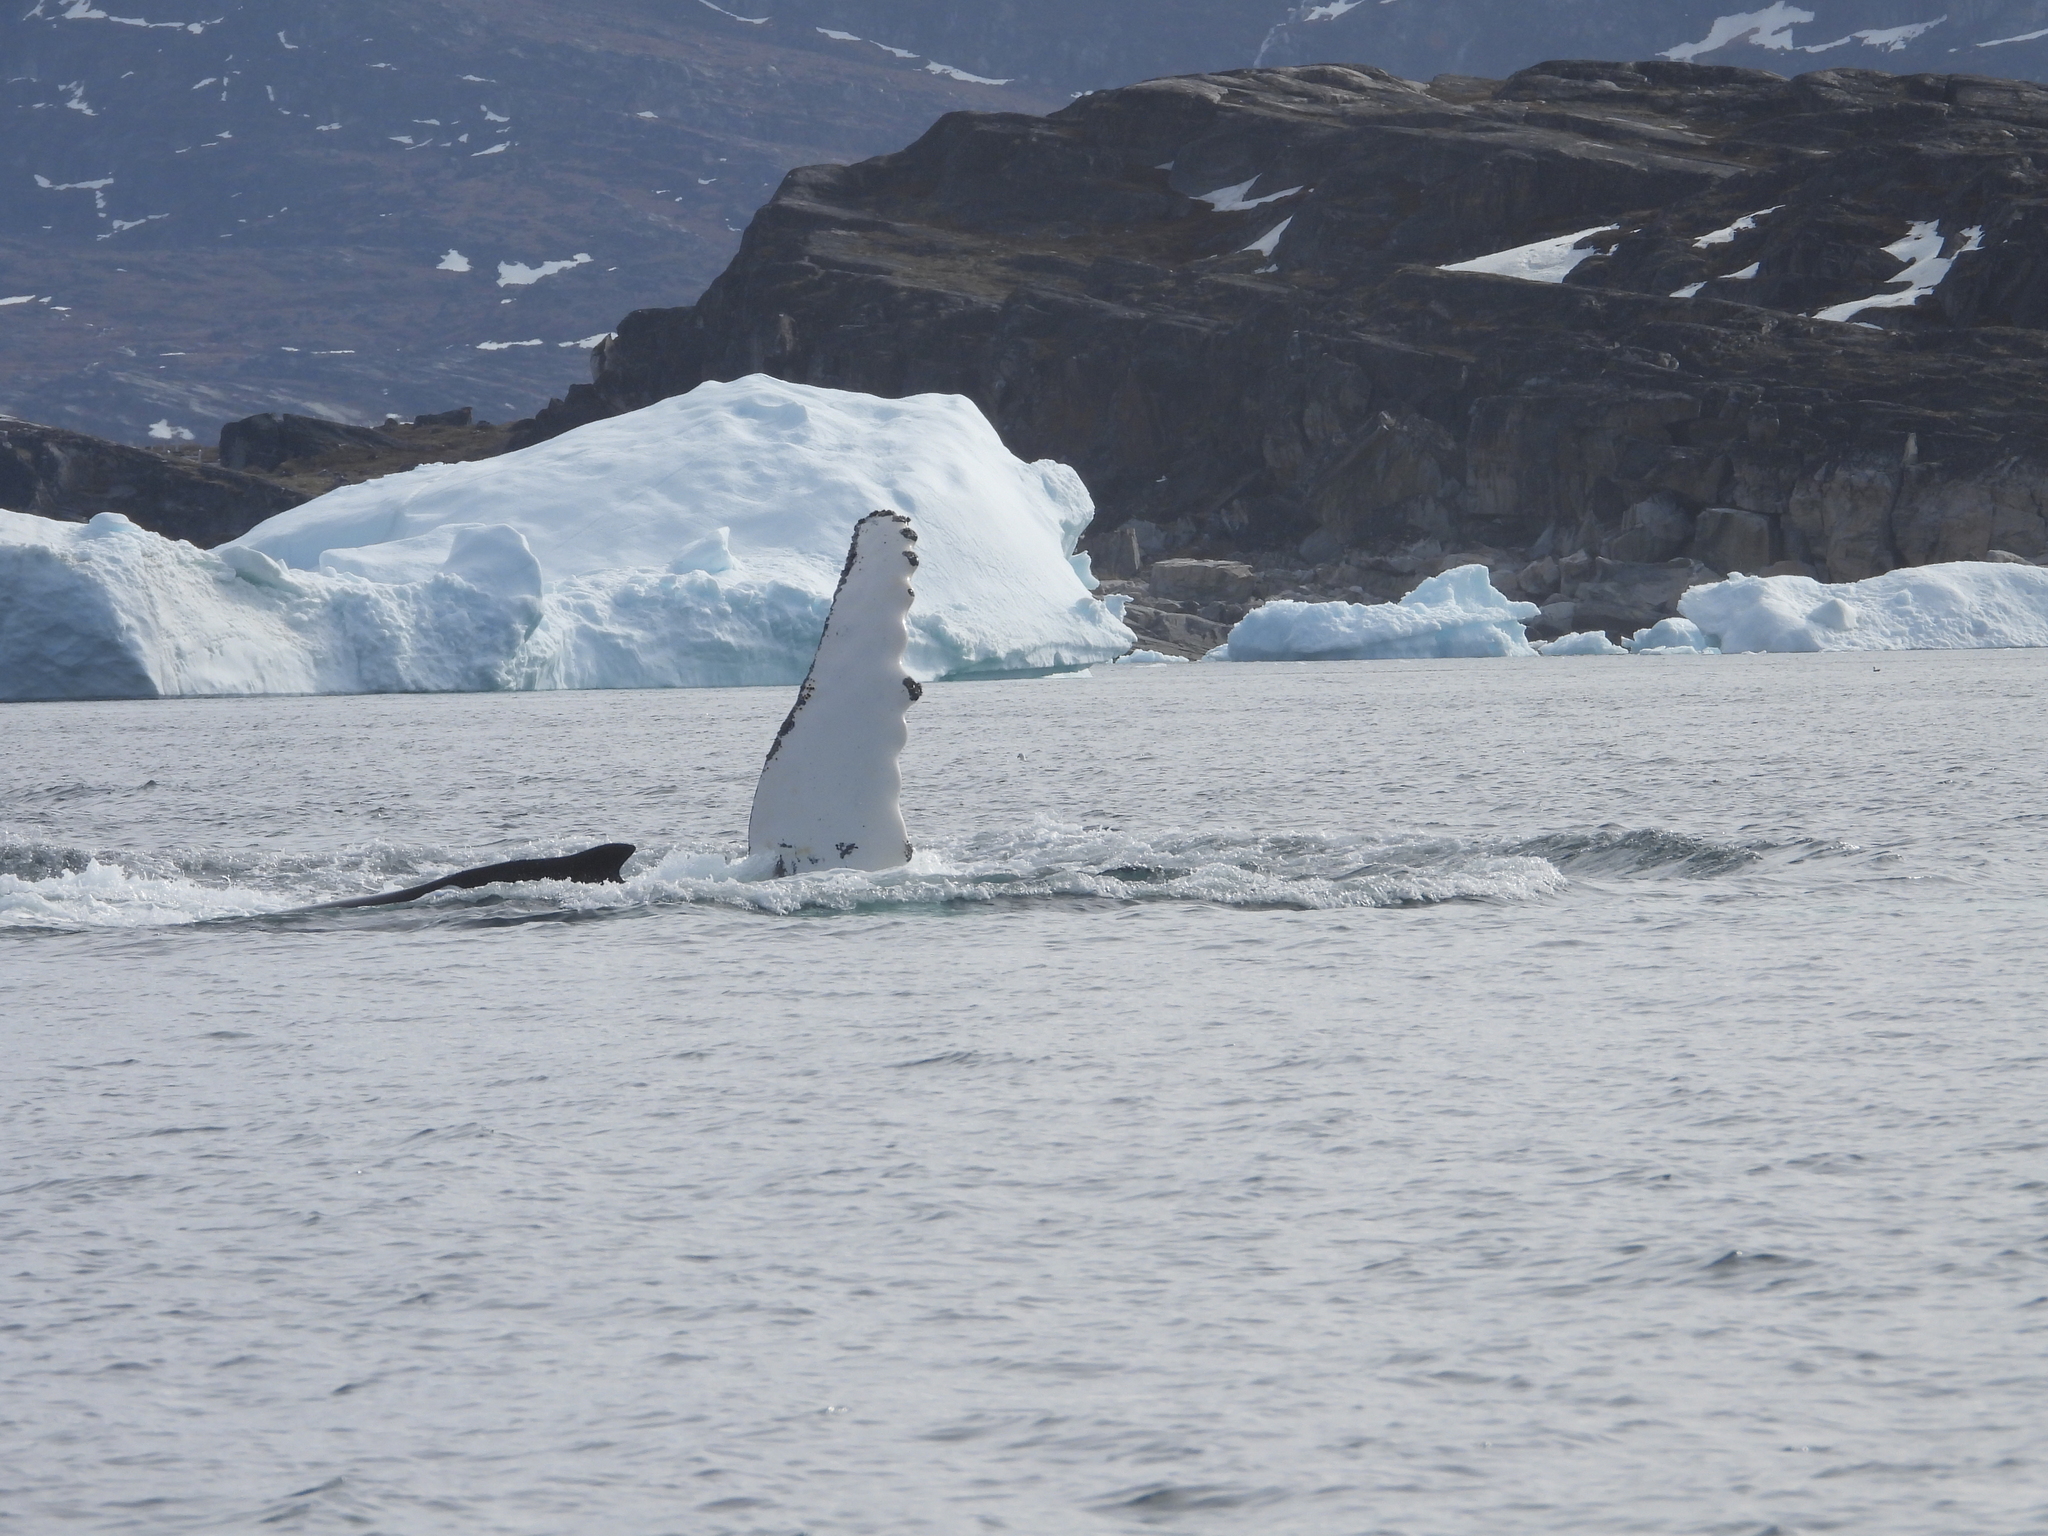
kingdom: Animalia
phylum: Chordata
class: Mammalia
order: Cetacea
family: Balaenopteridae
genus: Megaptera
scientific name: Megaptera novaeangliae
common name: Humpback whale
